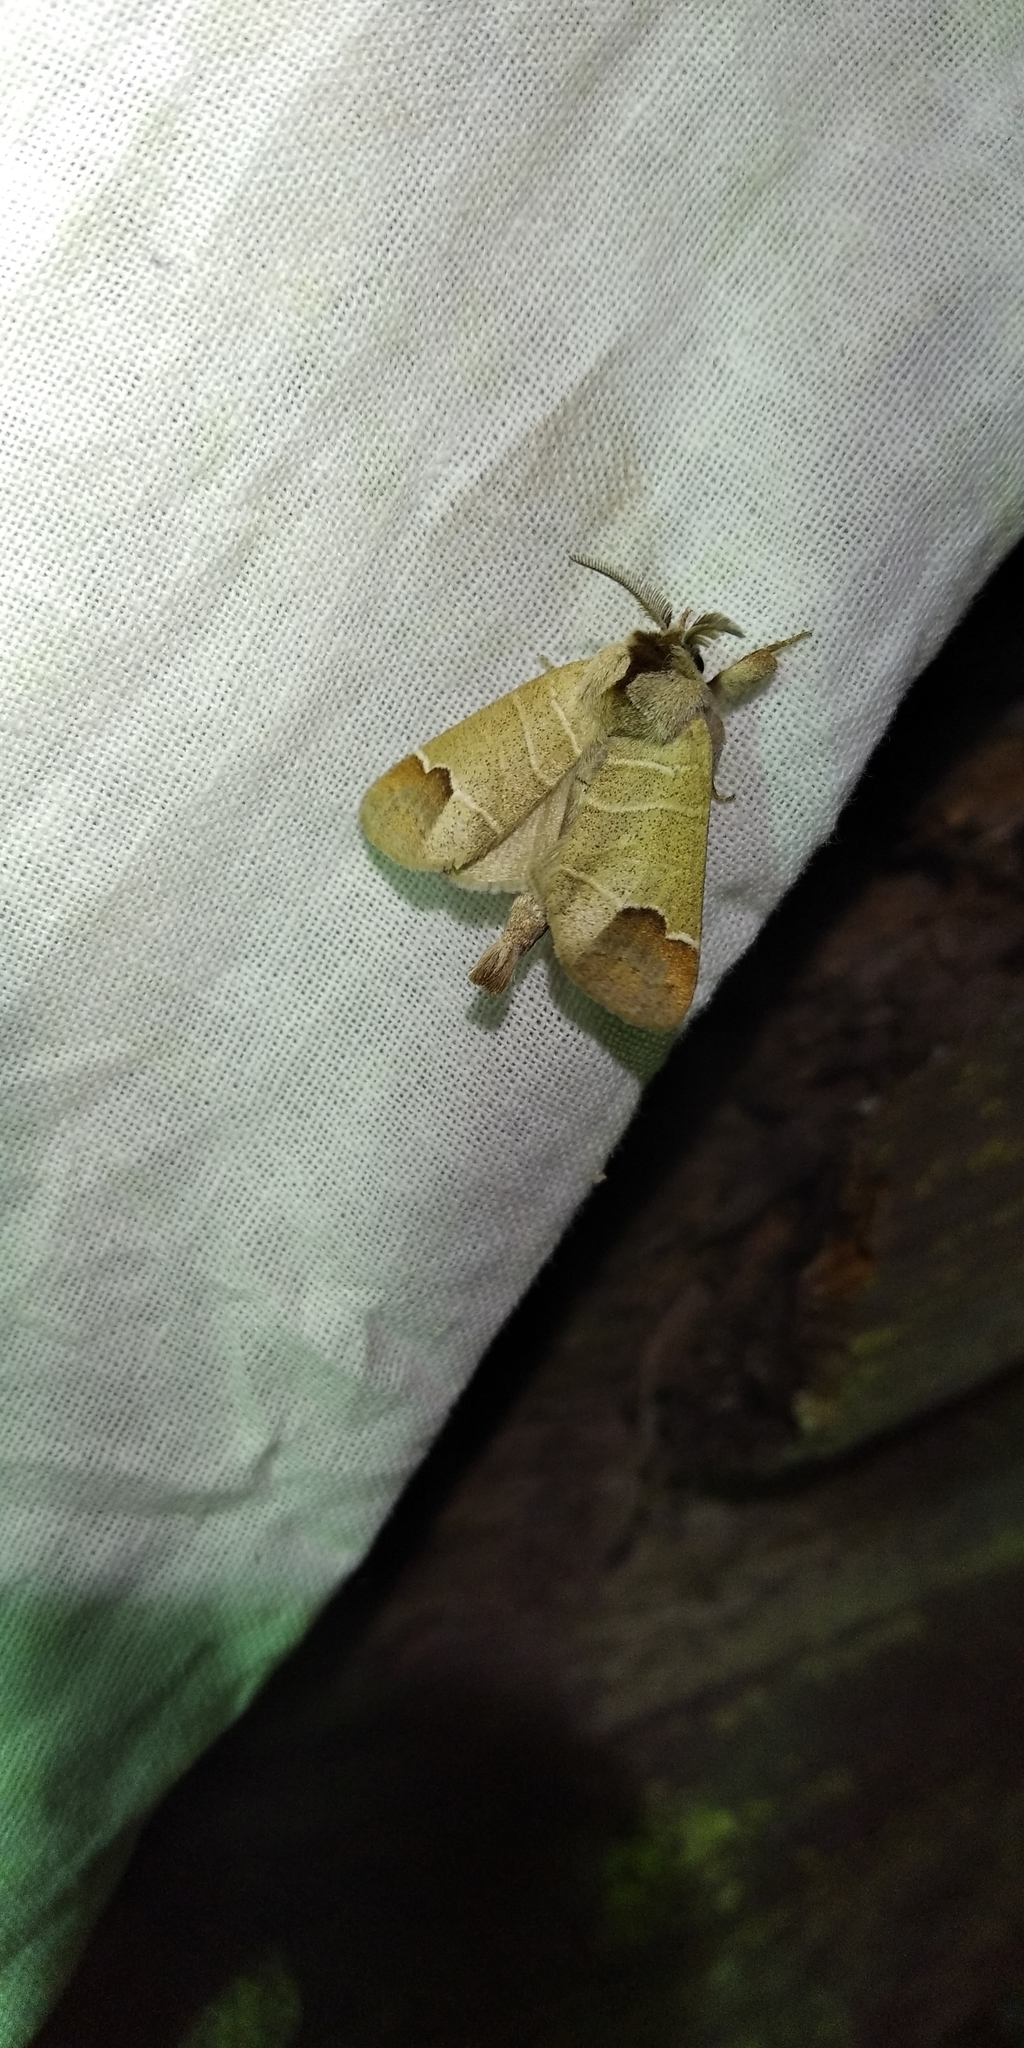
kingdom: Animalia
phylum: Arthropoda
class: Insecta
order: Lepidoptera
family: Notodontidae
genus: Clostera
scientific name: Clostera curtula
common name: Chocolate-tip
